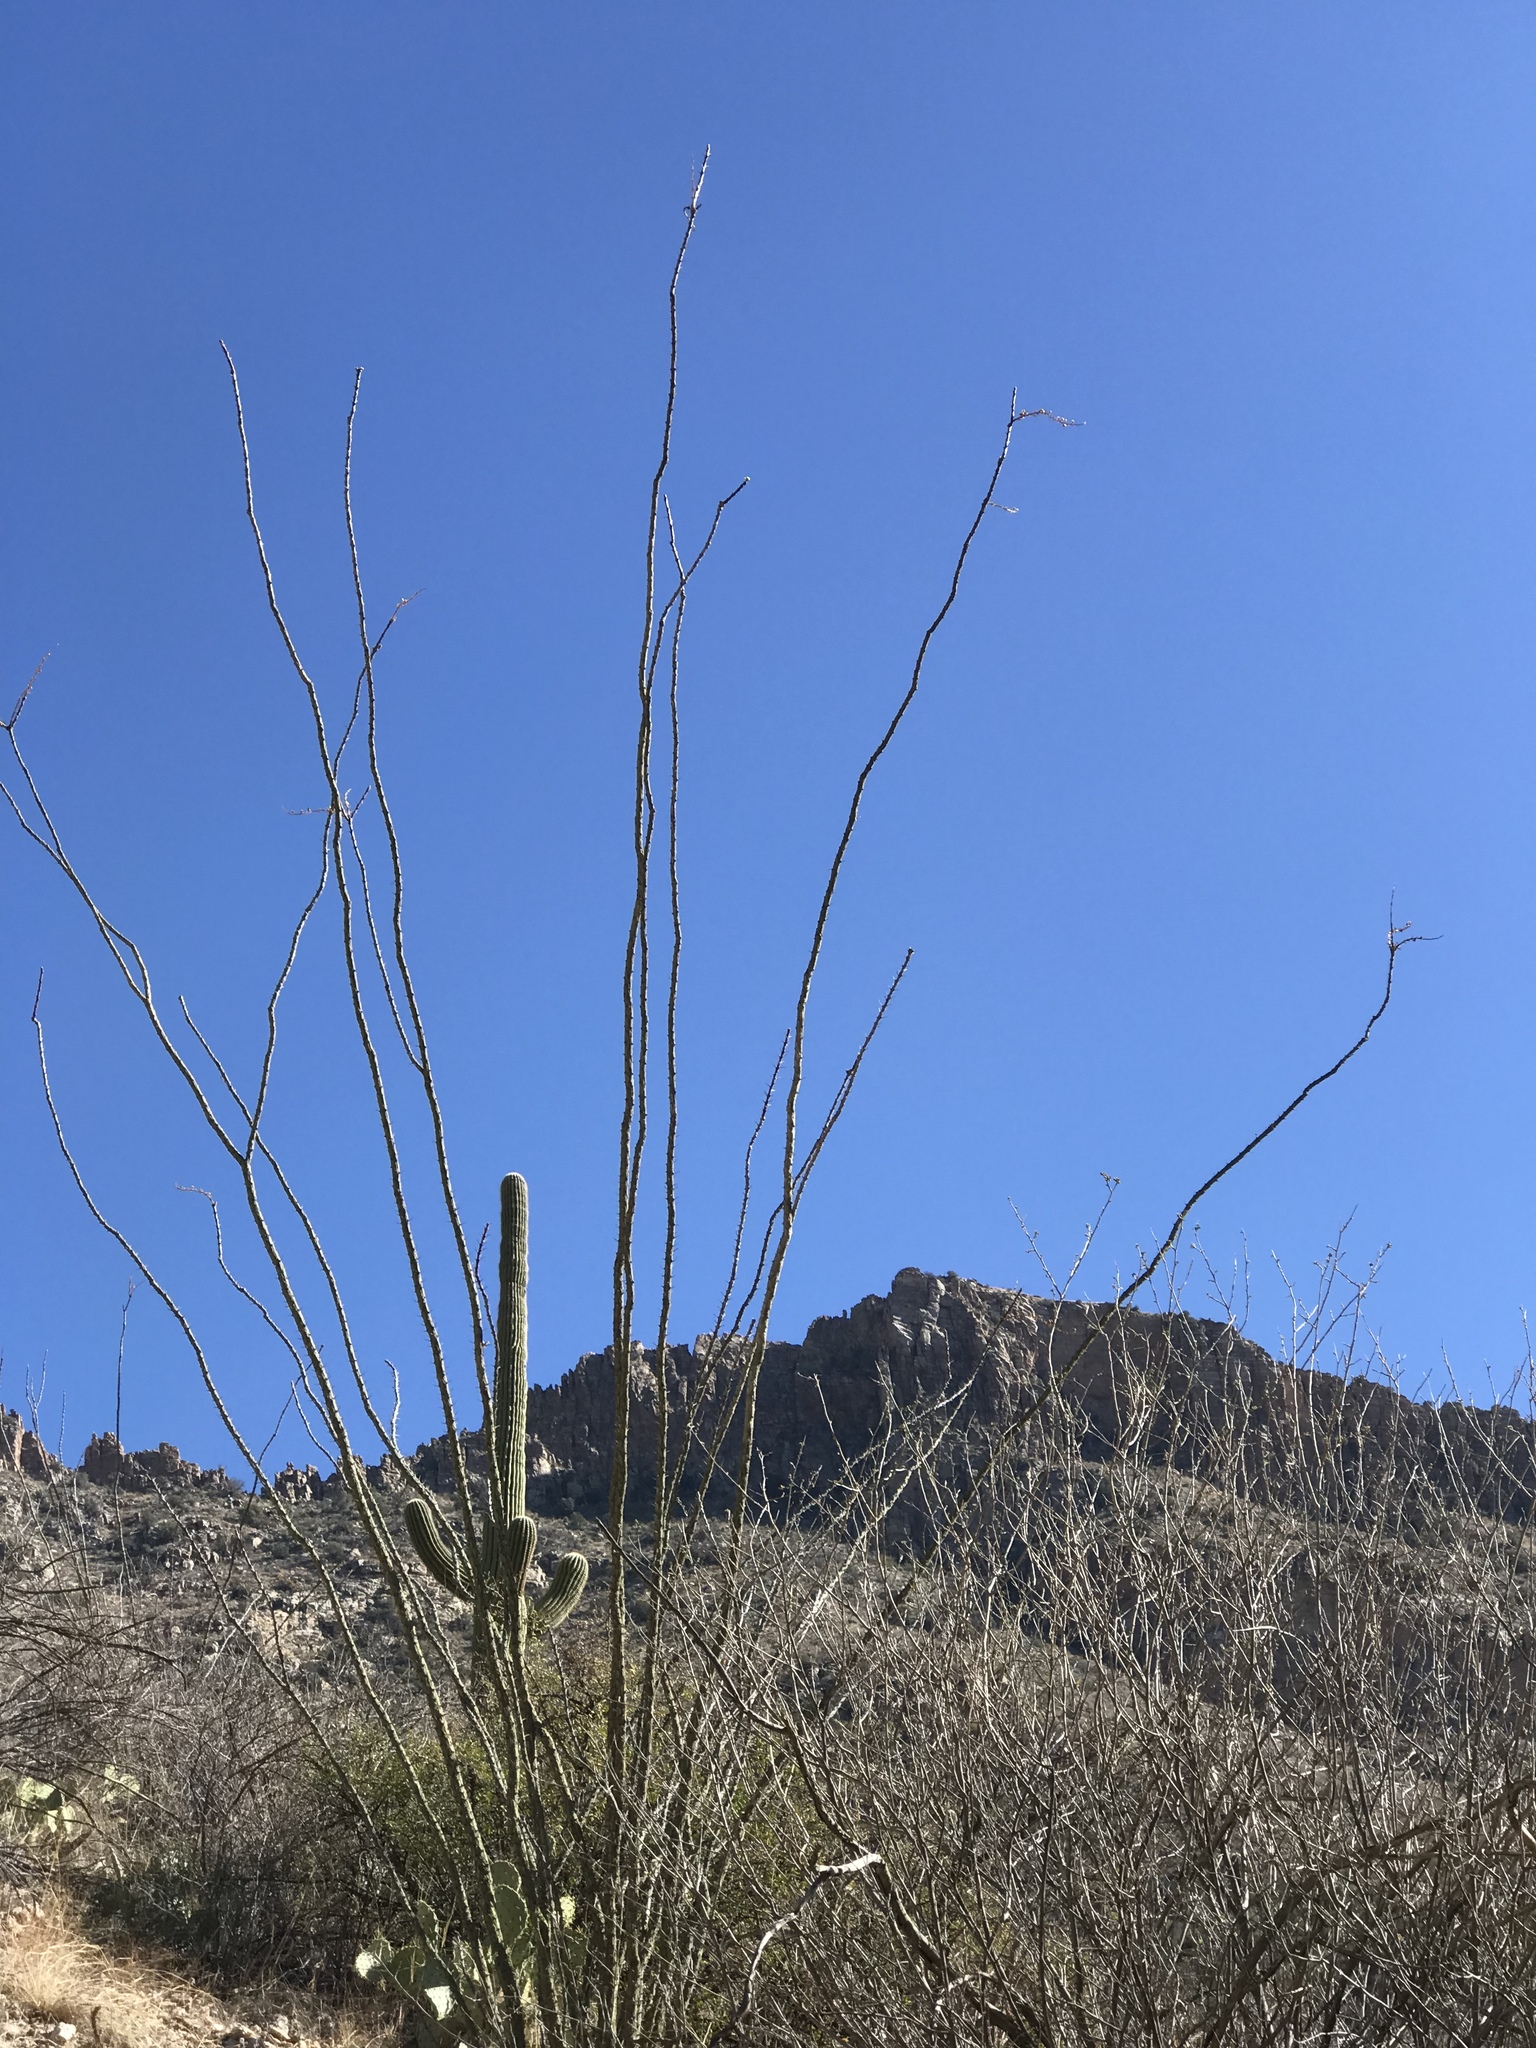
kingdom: Plantae
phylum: Tracheophyta
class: Magnoliopsida
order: Ericales
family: Fouquieriaceae
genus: Fouquieria
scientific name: Fouquieria splendens
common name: Vine-cactus
